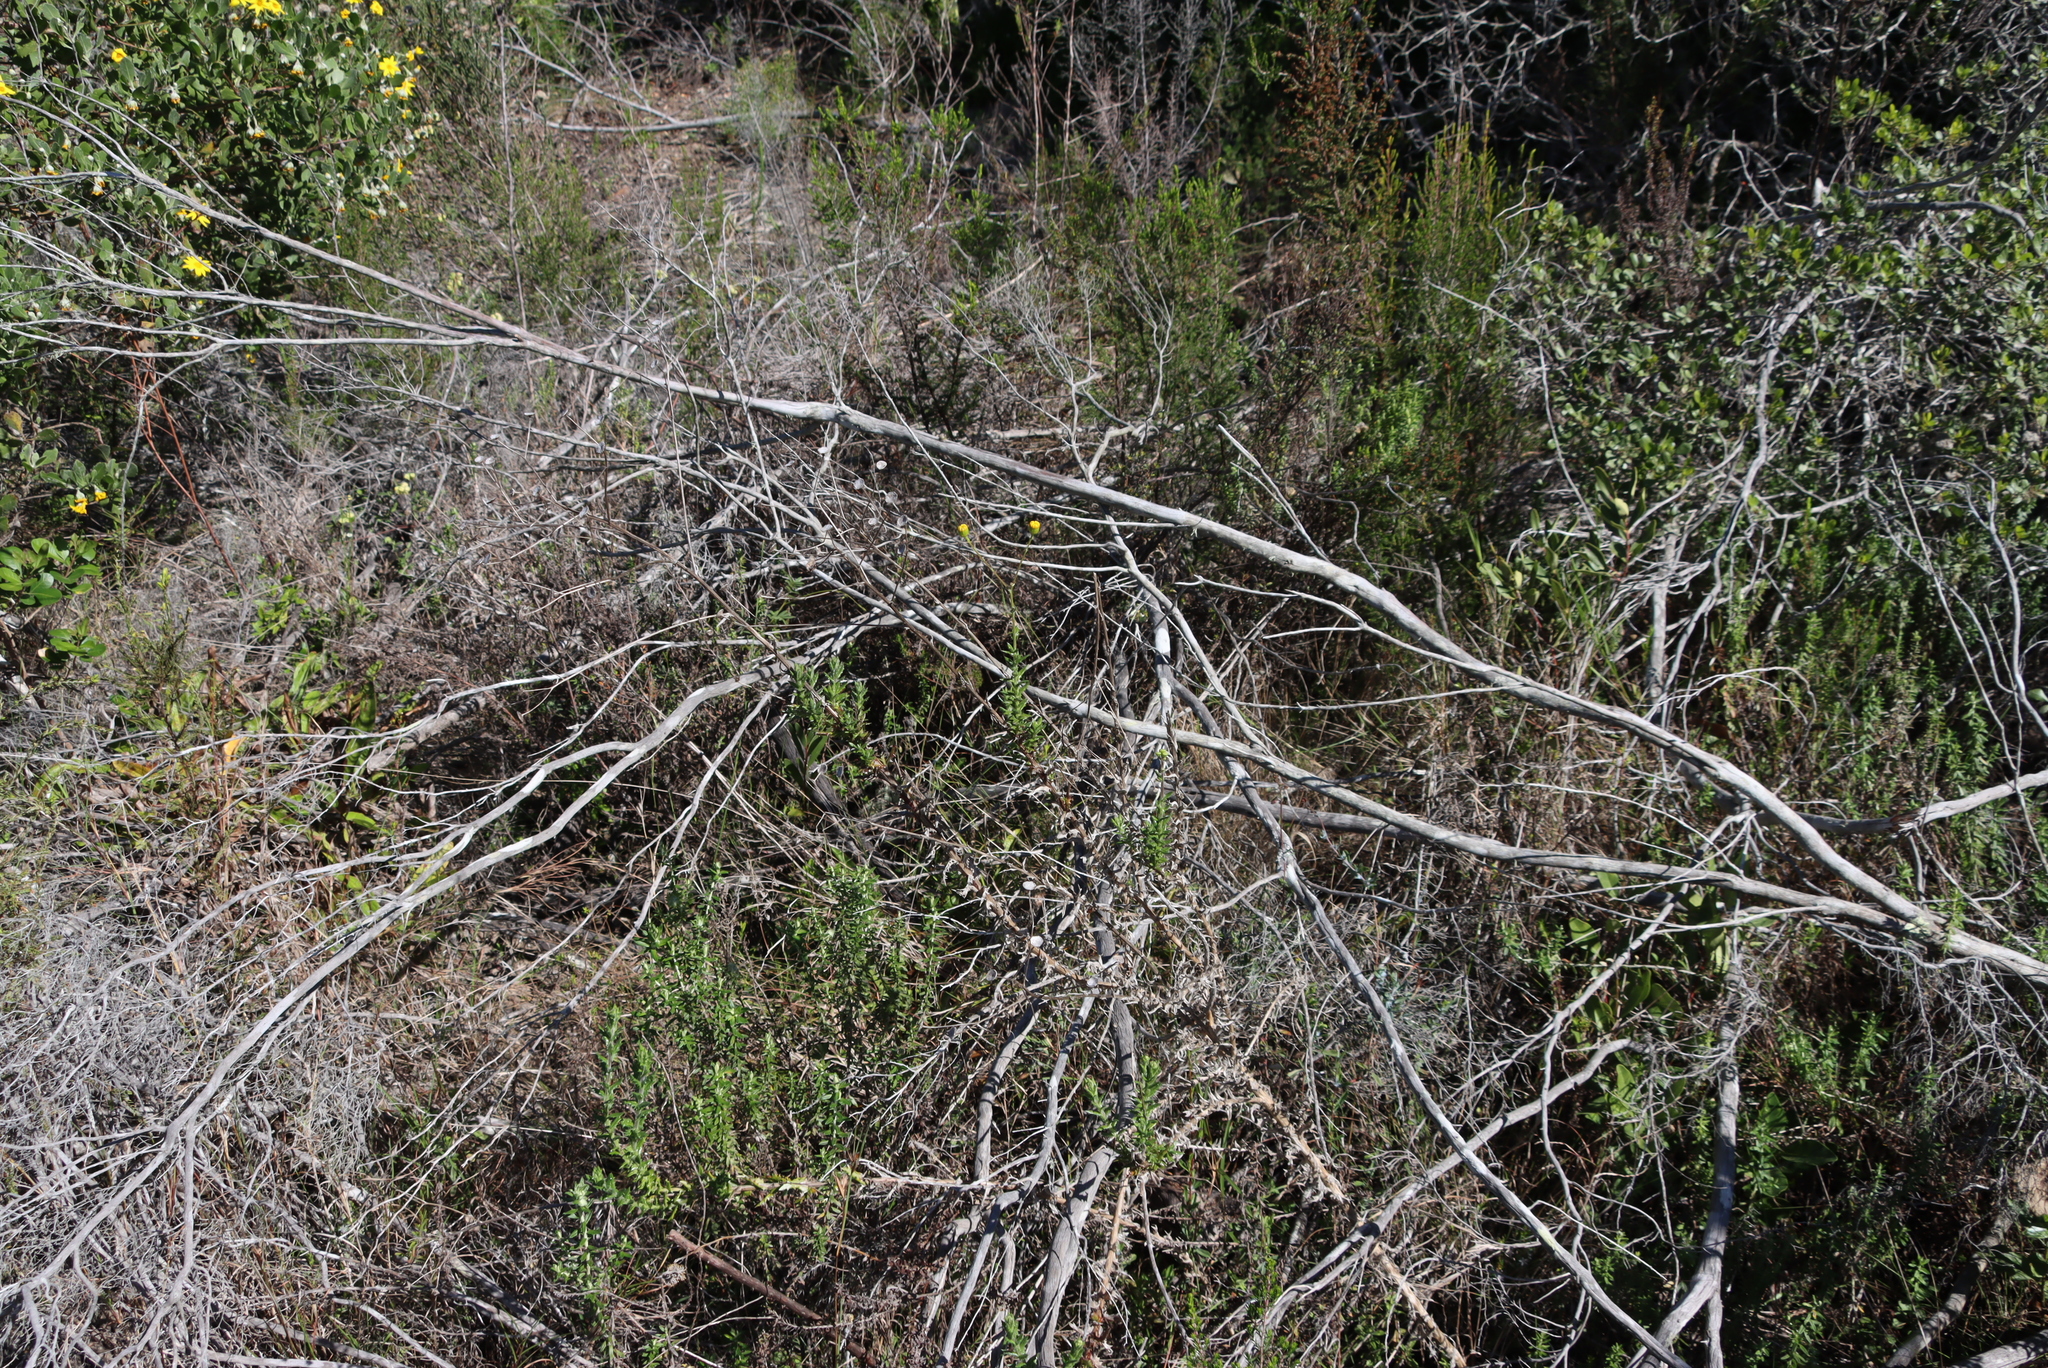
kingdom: Plantae
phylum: Tracheophyta
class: Magnoliopsida
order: Asterales
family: Asteraceae
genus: Senecio
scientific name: Senecio ilicifolius
